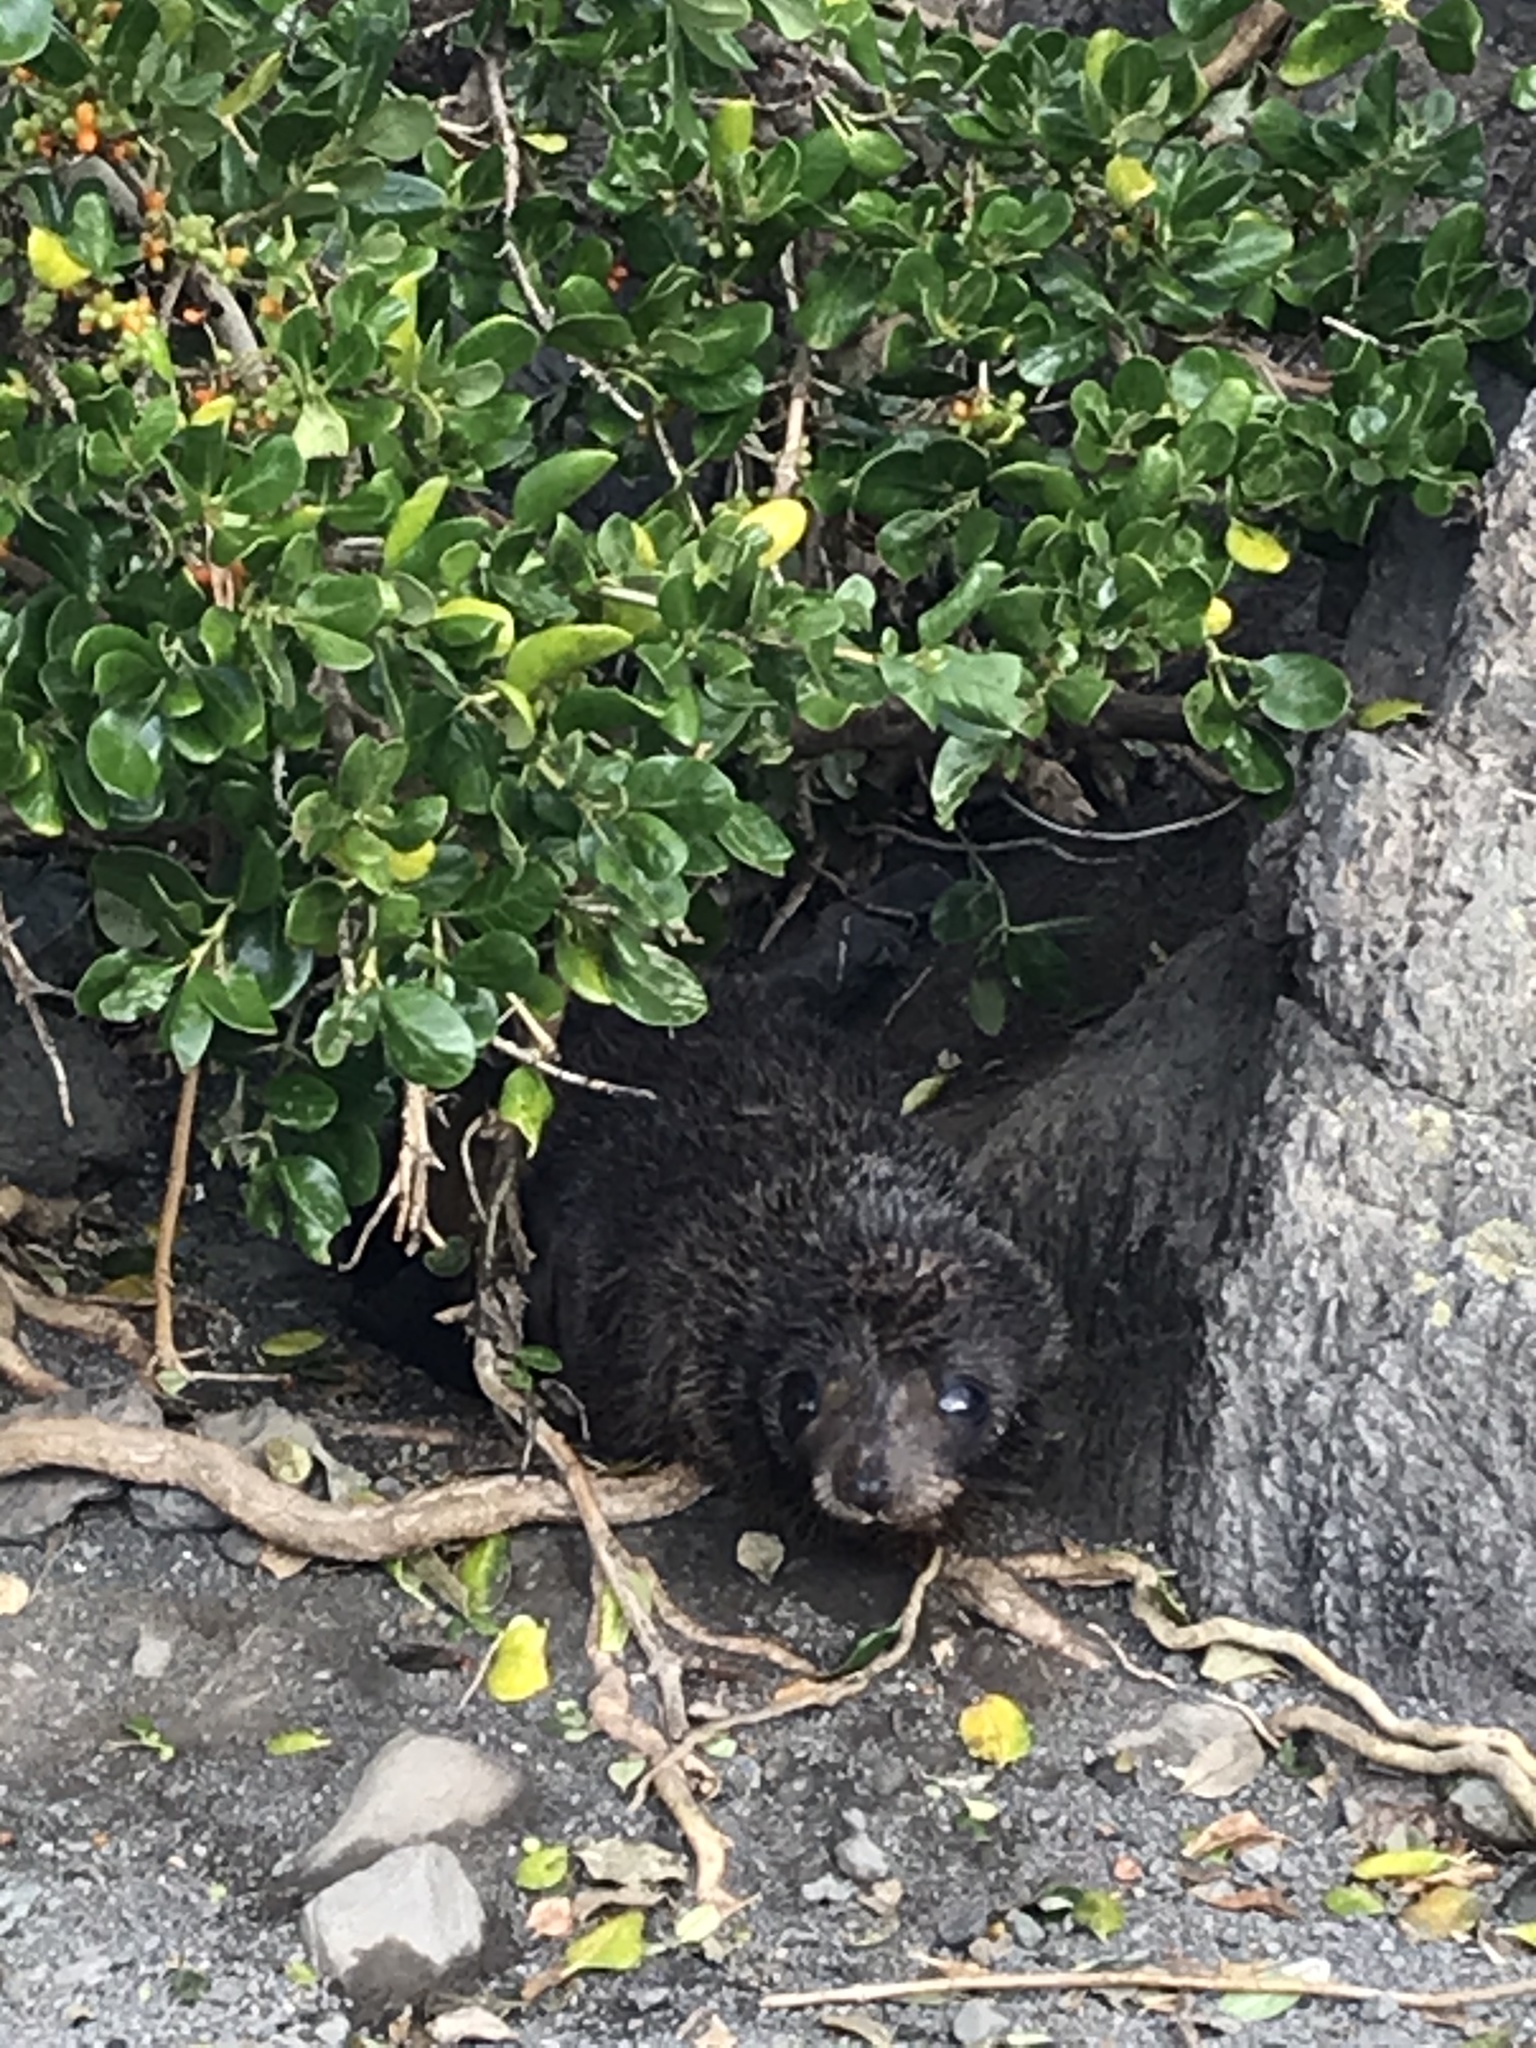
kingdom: Animalia
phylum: Chordata
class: Mammalia
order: Carnivora
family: Otariidae
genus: Arctocephalus
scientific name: Arctocephalus forsteri
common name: New zealand fur seal
